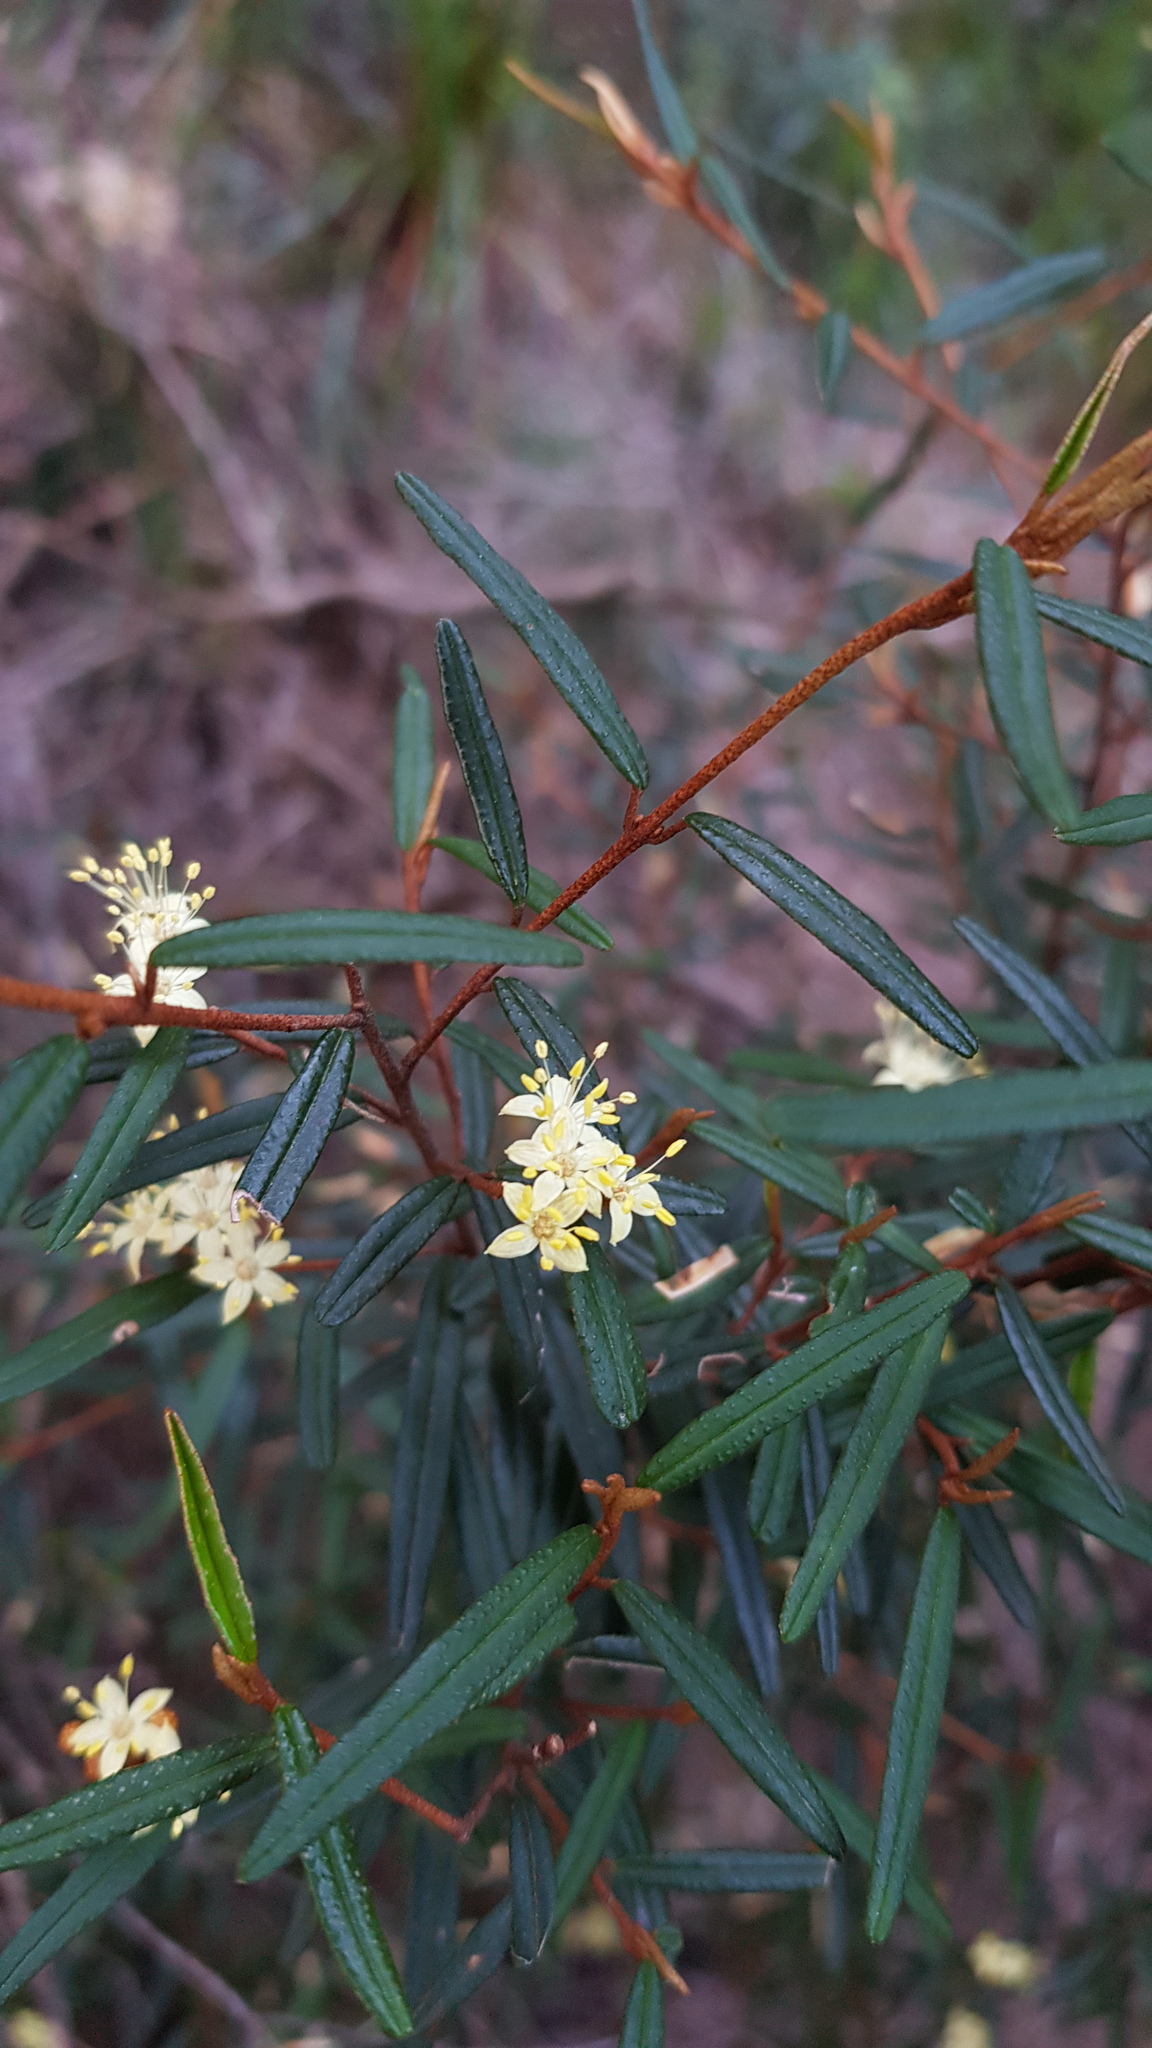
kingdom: Plantae
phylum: Tracheophyta
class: Magnoliopsida
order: Sapindales
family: Rutaceae
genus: Phebalium
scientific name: Phebalium squamulosum
